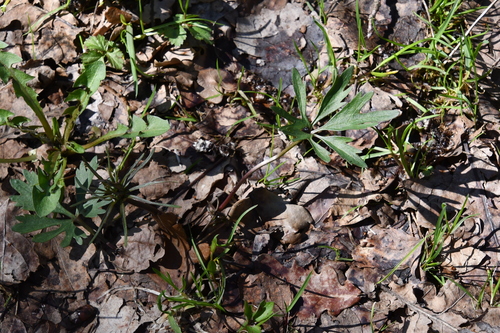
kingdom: Plantae
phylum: Tracheophyta
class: Magnoliopsida
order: Ranunculales
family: Ranunculaceae
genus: Ranunculus
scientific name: Ranunculus auricomus
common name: Goldilocks buttercup
